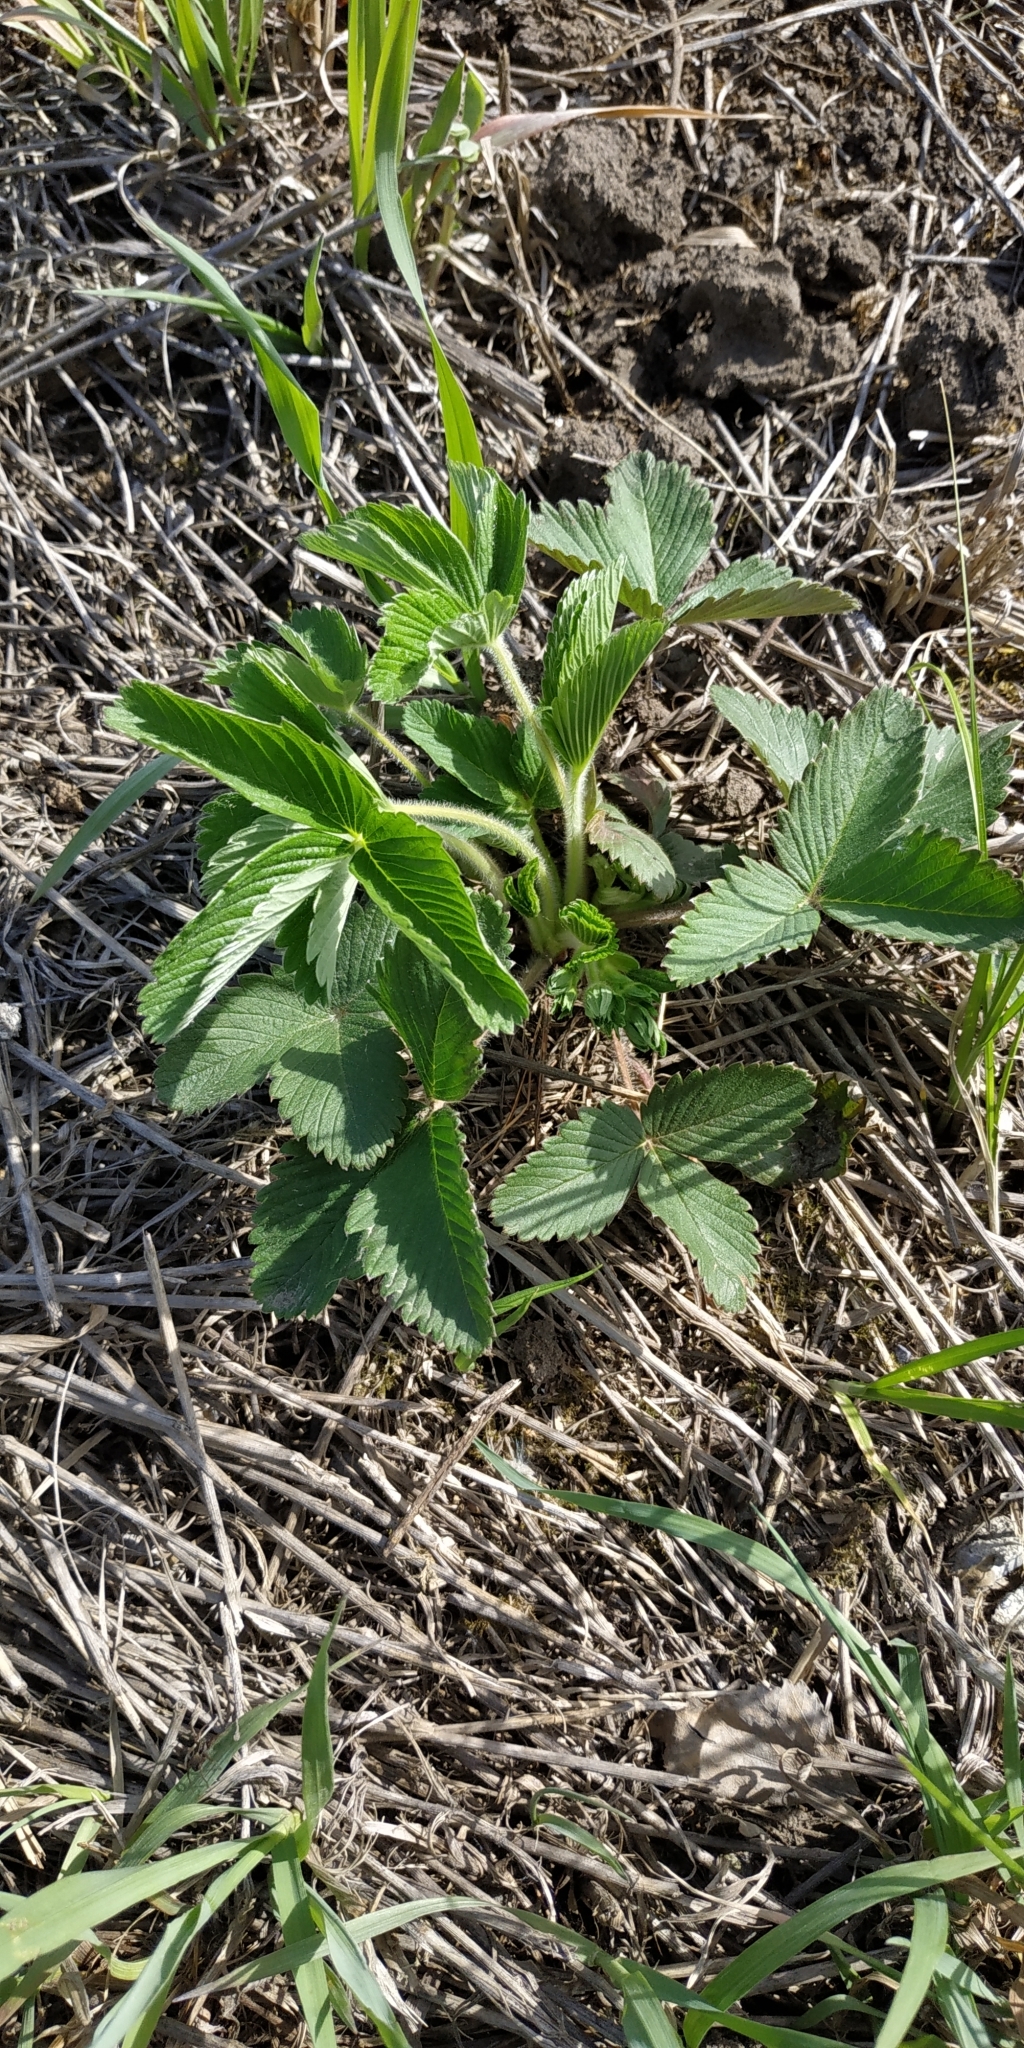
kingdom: Plantae
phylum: Tracheophyta
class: Magnoliopsida
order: Rosales
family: Rosaceae
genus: Fragaria
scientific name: Fragaria viridis
